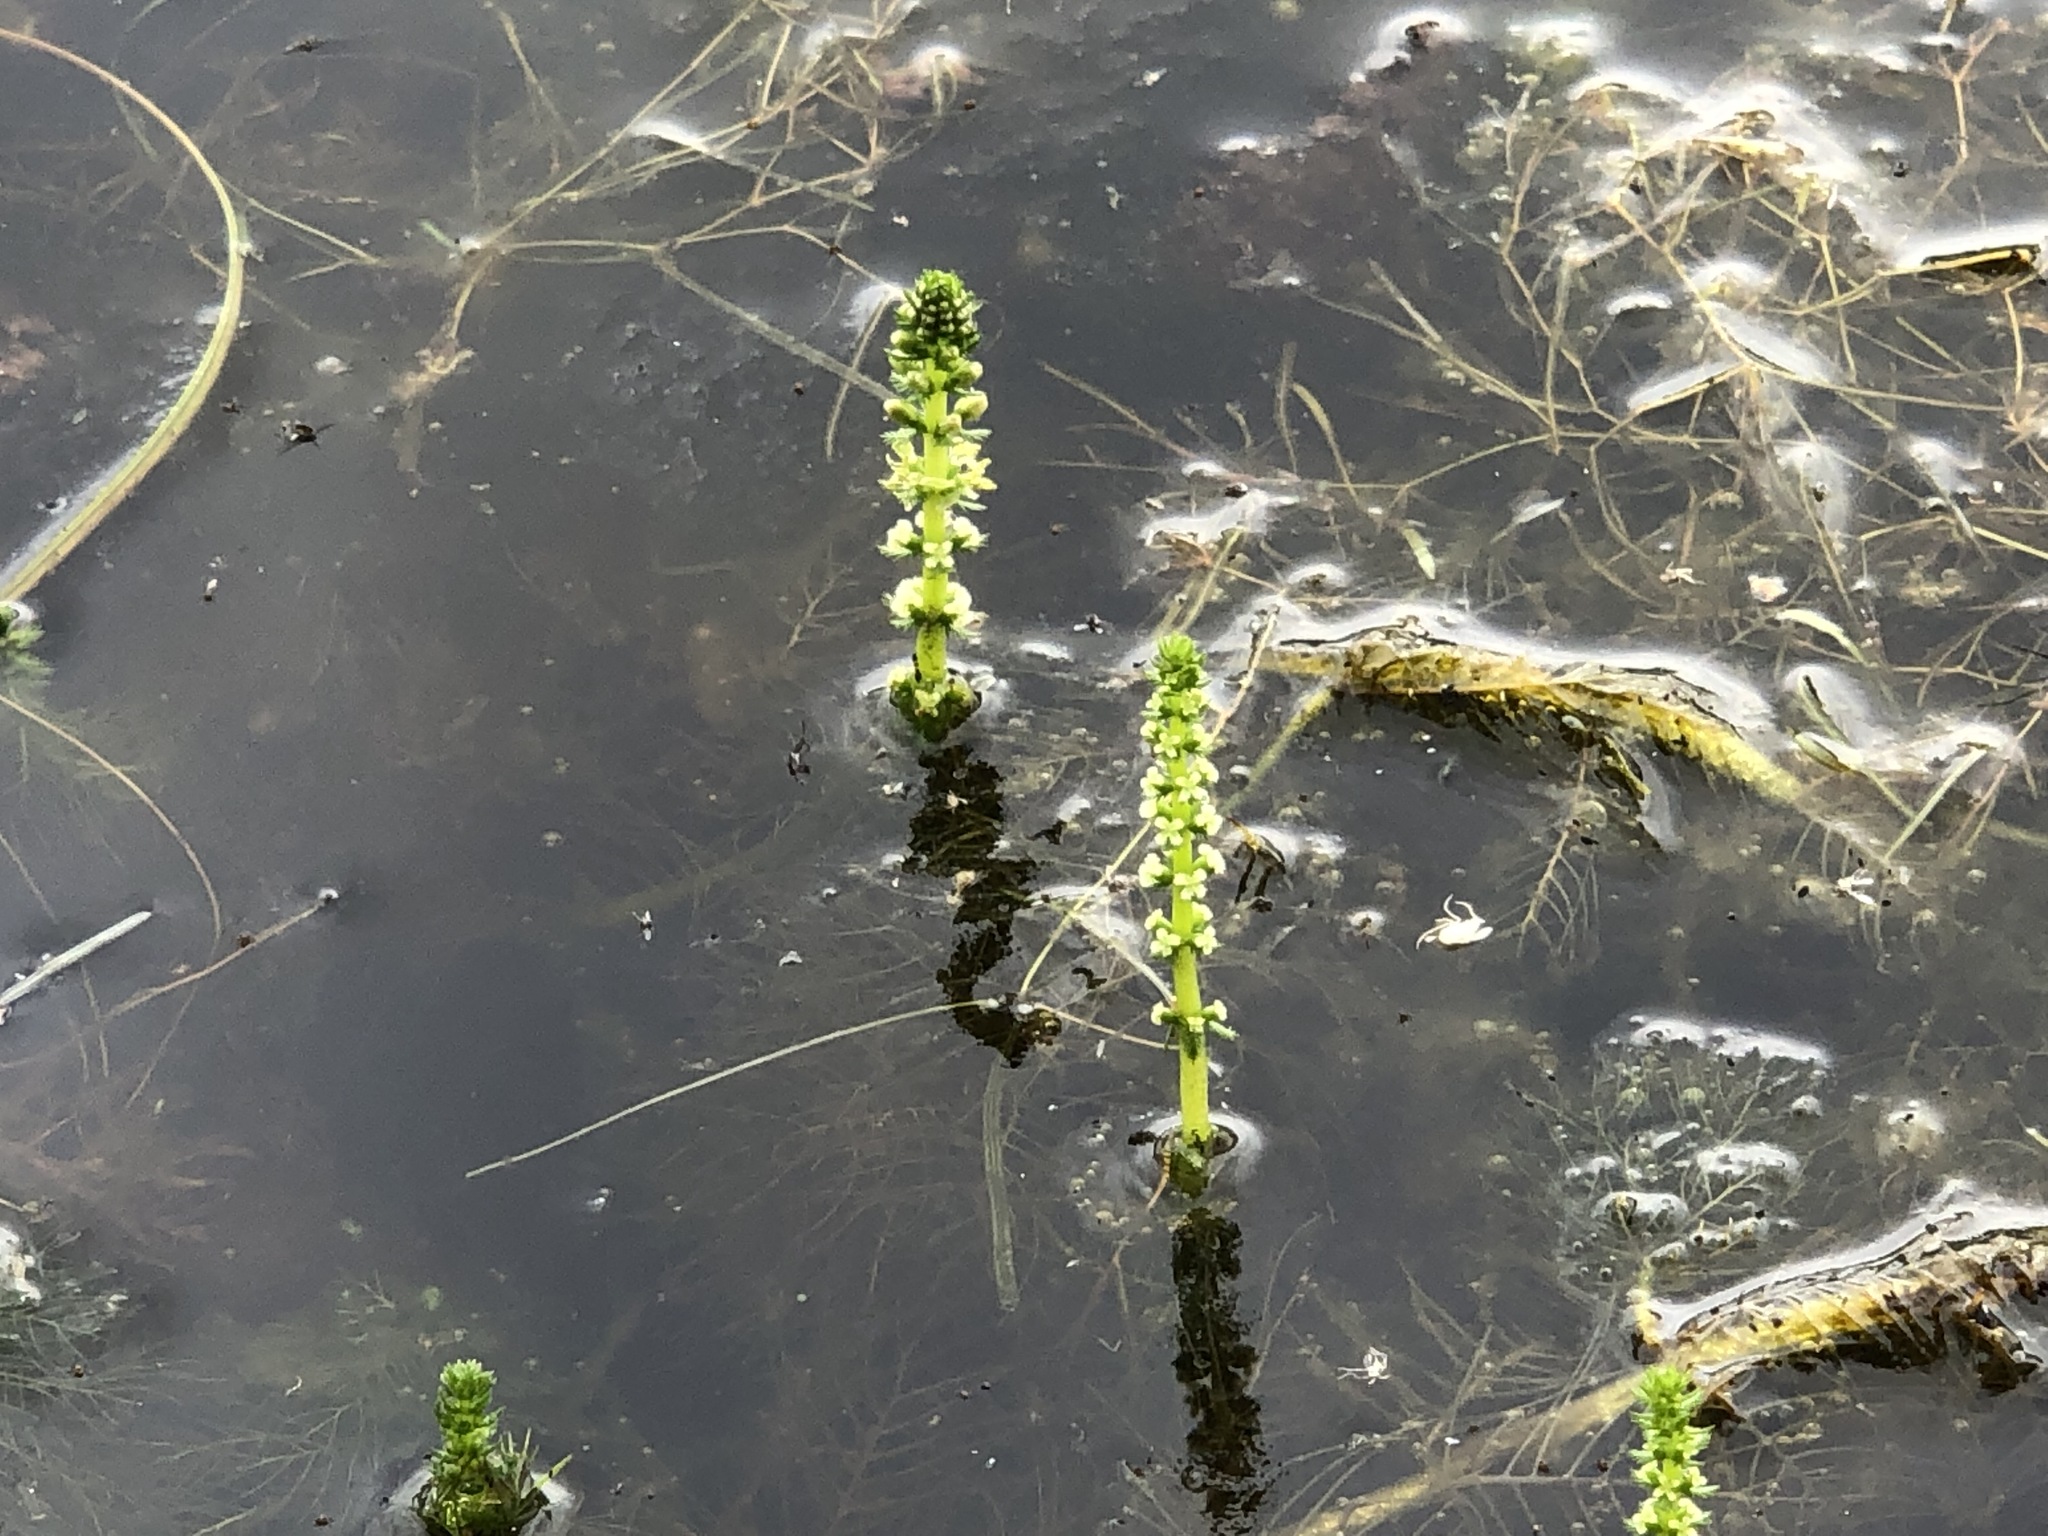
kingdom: Plantae
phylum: Tracheophyta
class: Magnoliopsida
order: Saxifragales
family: Haloragaceae
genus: Myriophyllum
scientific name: Myriophyllum sibiricum
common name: Siberian water-milfoil
